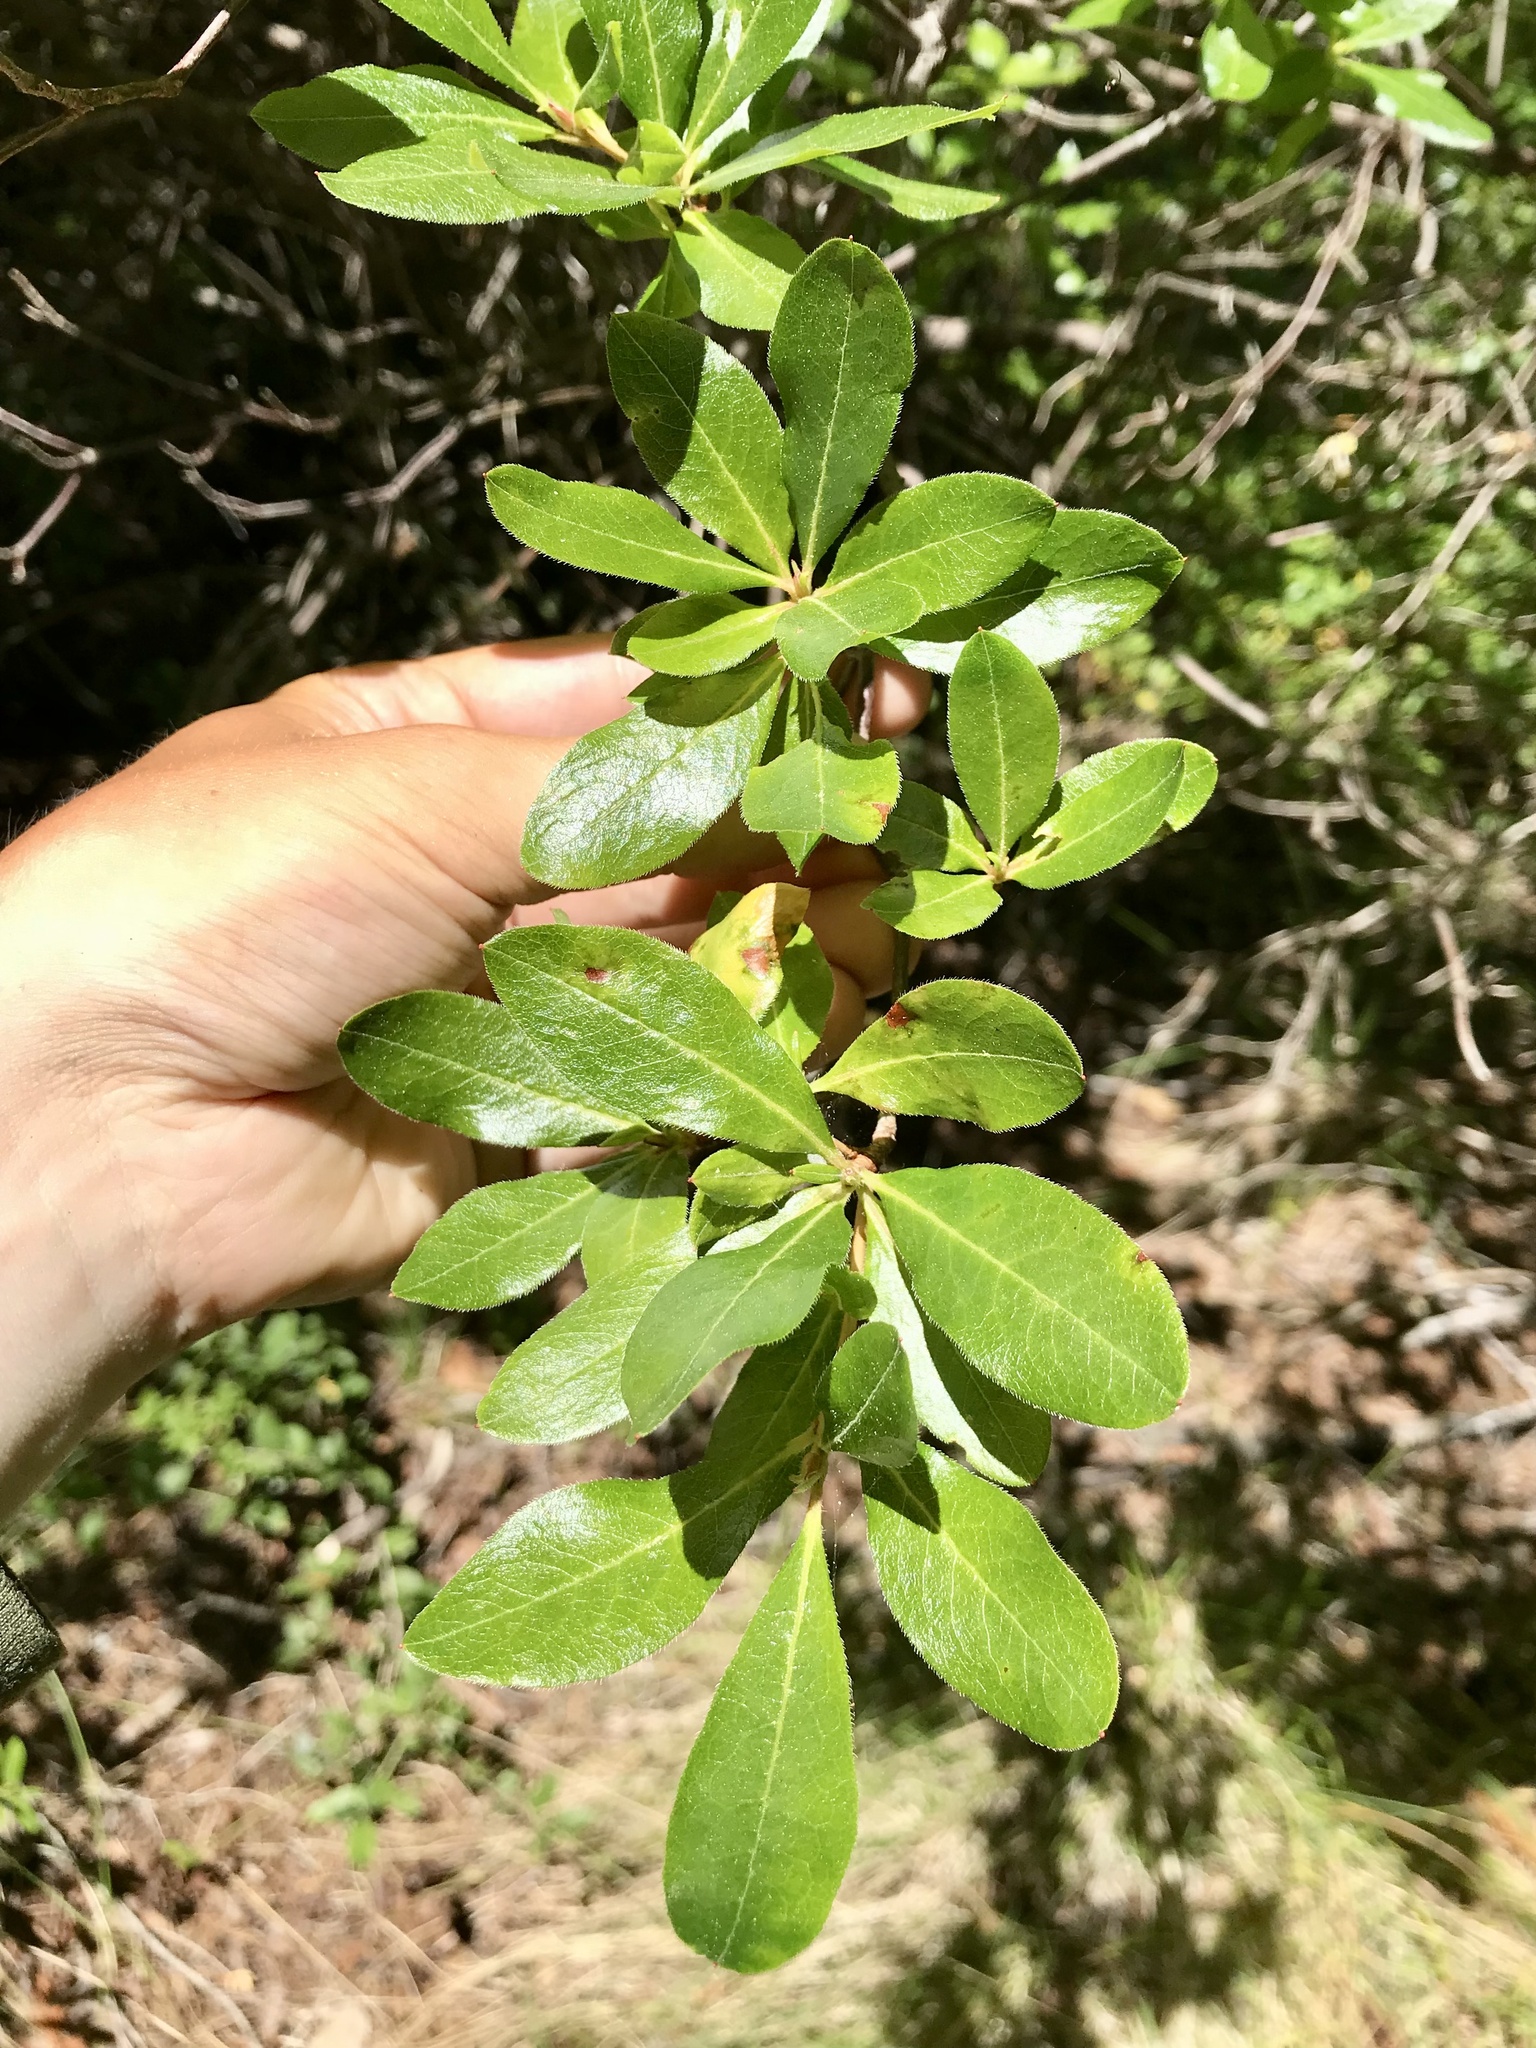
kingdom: Plantae
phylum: Tracheophyta
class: Magnoliopsida
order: Ericales
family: Ericaceae
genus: Rhododendron
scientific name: Rhododendron occidentale
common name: Western azalea
